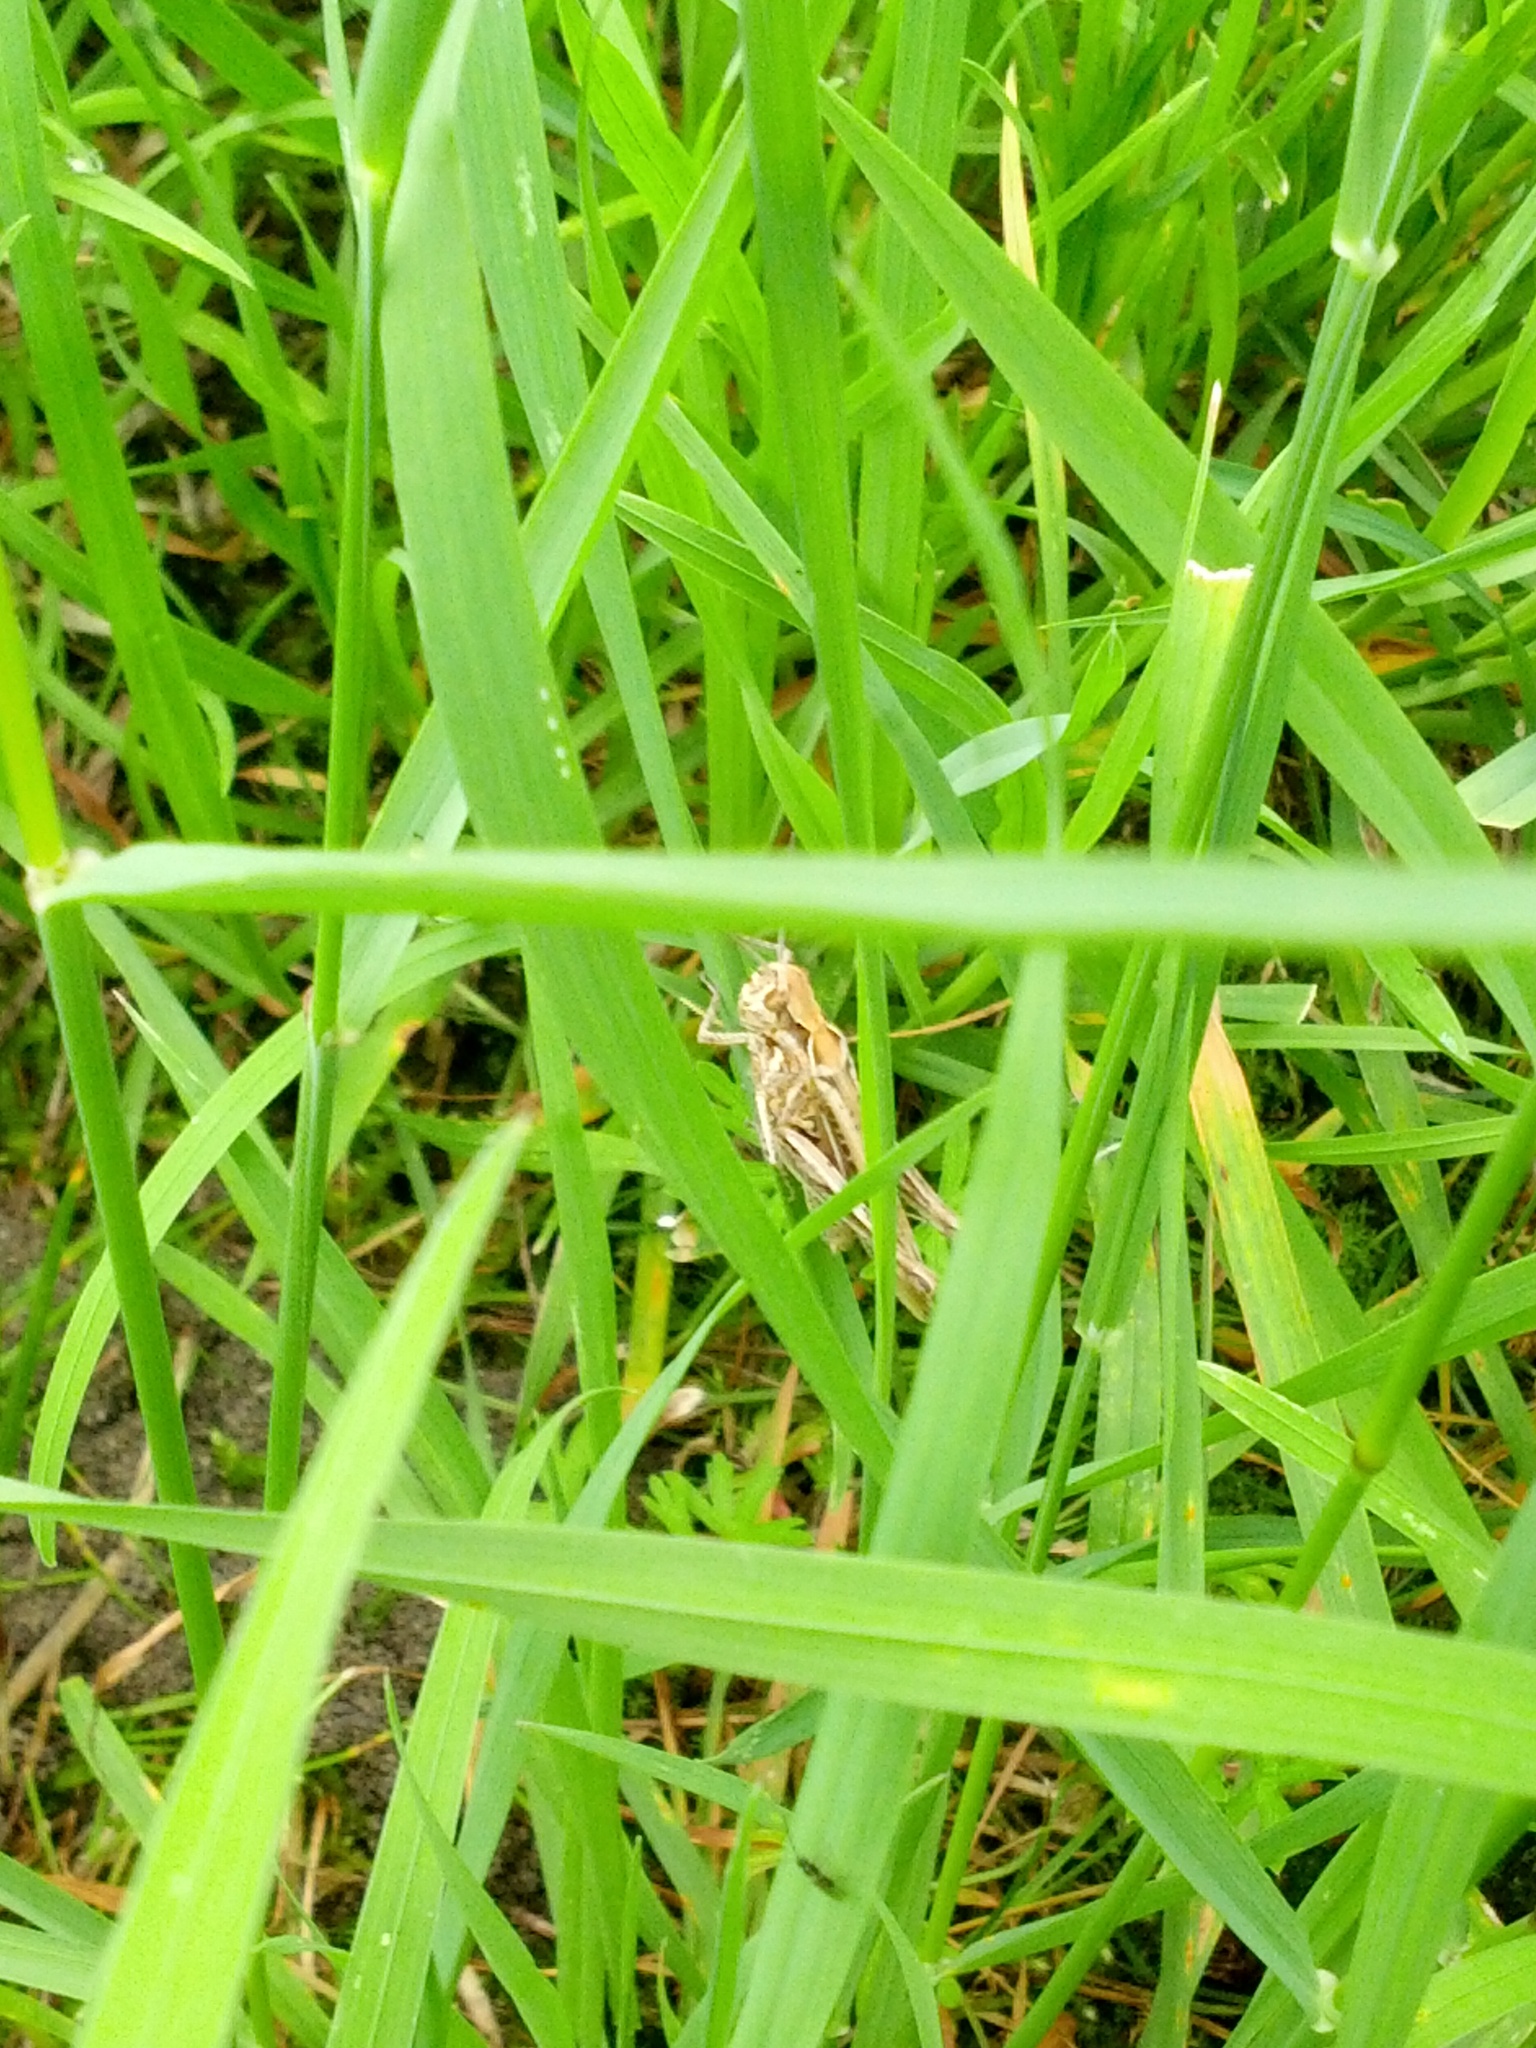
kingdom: Animalia
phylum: Arthropoda
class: Insecta
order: Orthoptera
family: Acrididae
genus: Chorthippus
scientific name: Chorthippus brunneus
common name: Field grasshopper
